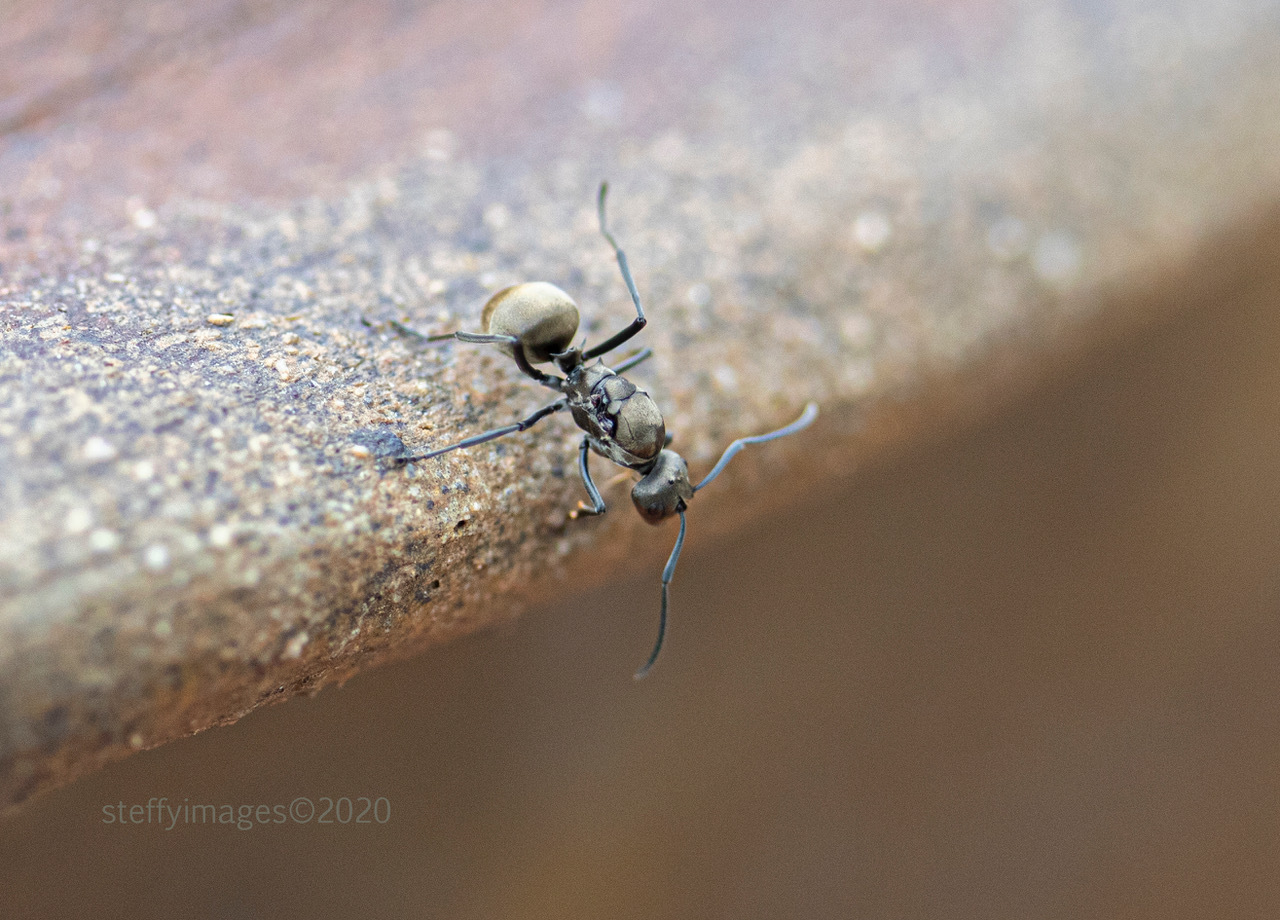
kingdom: Animalia
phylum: Arthropoda
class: Insecta
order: Hymenoptera
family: Formicidae
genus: Polyrhachis
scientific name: Polyrhachis dives
